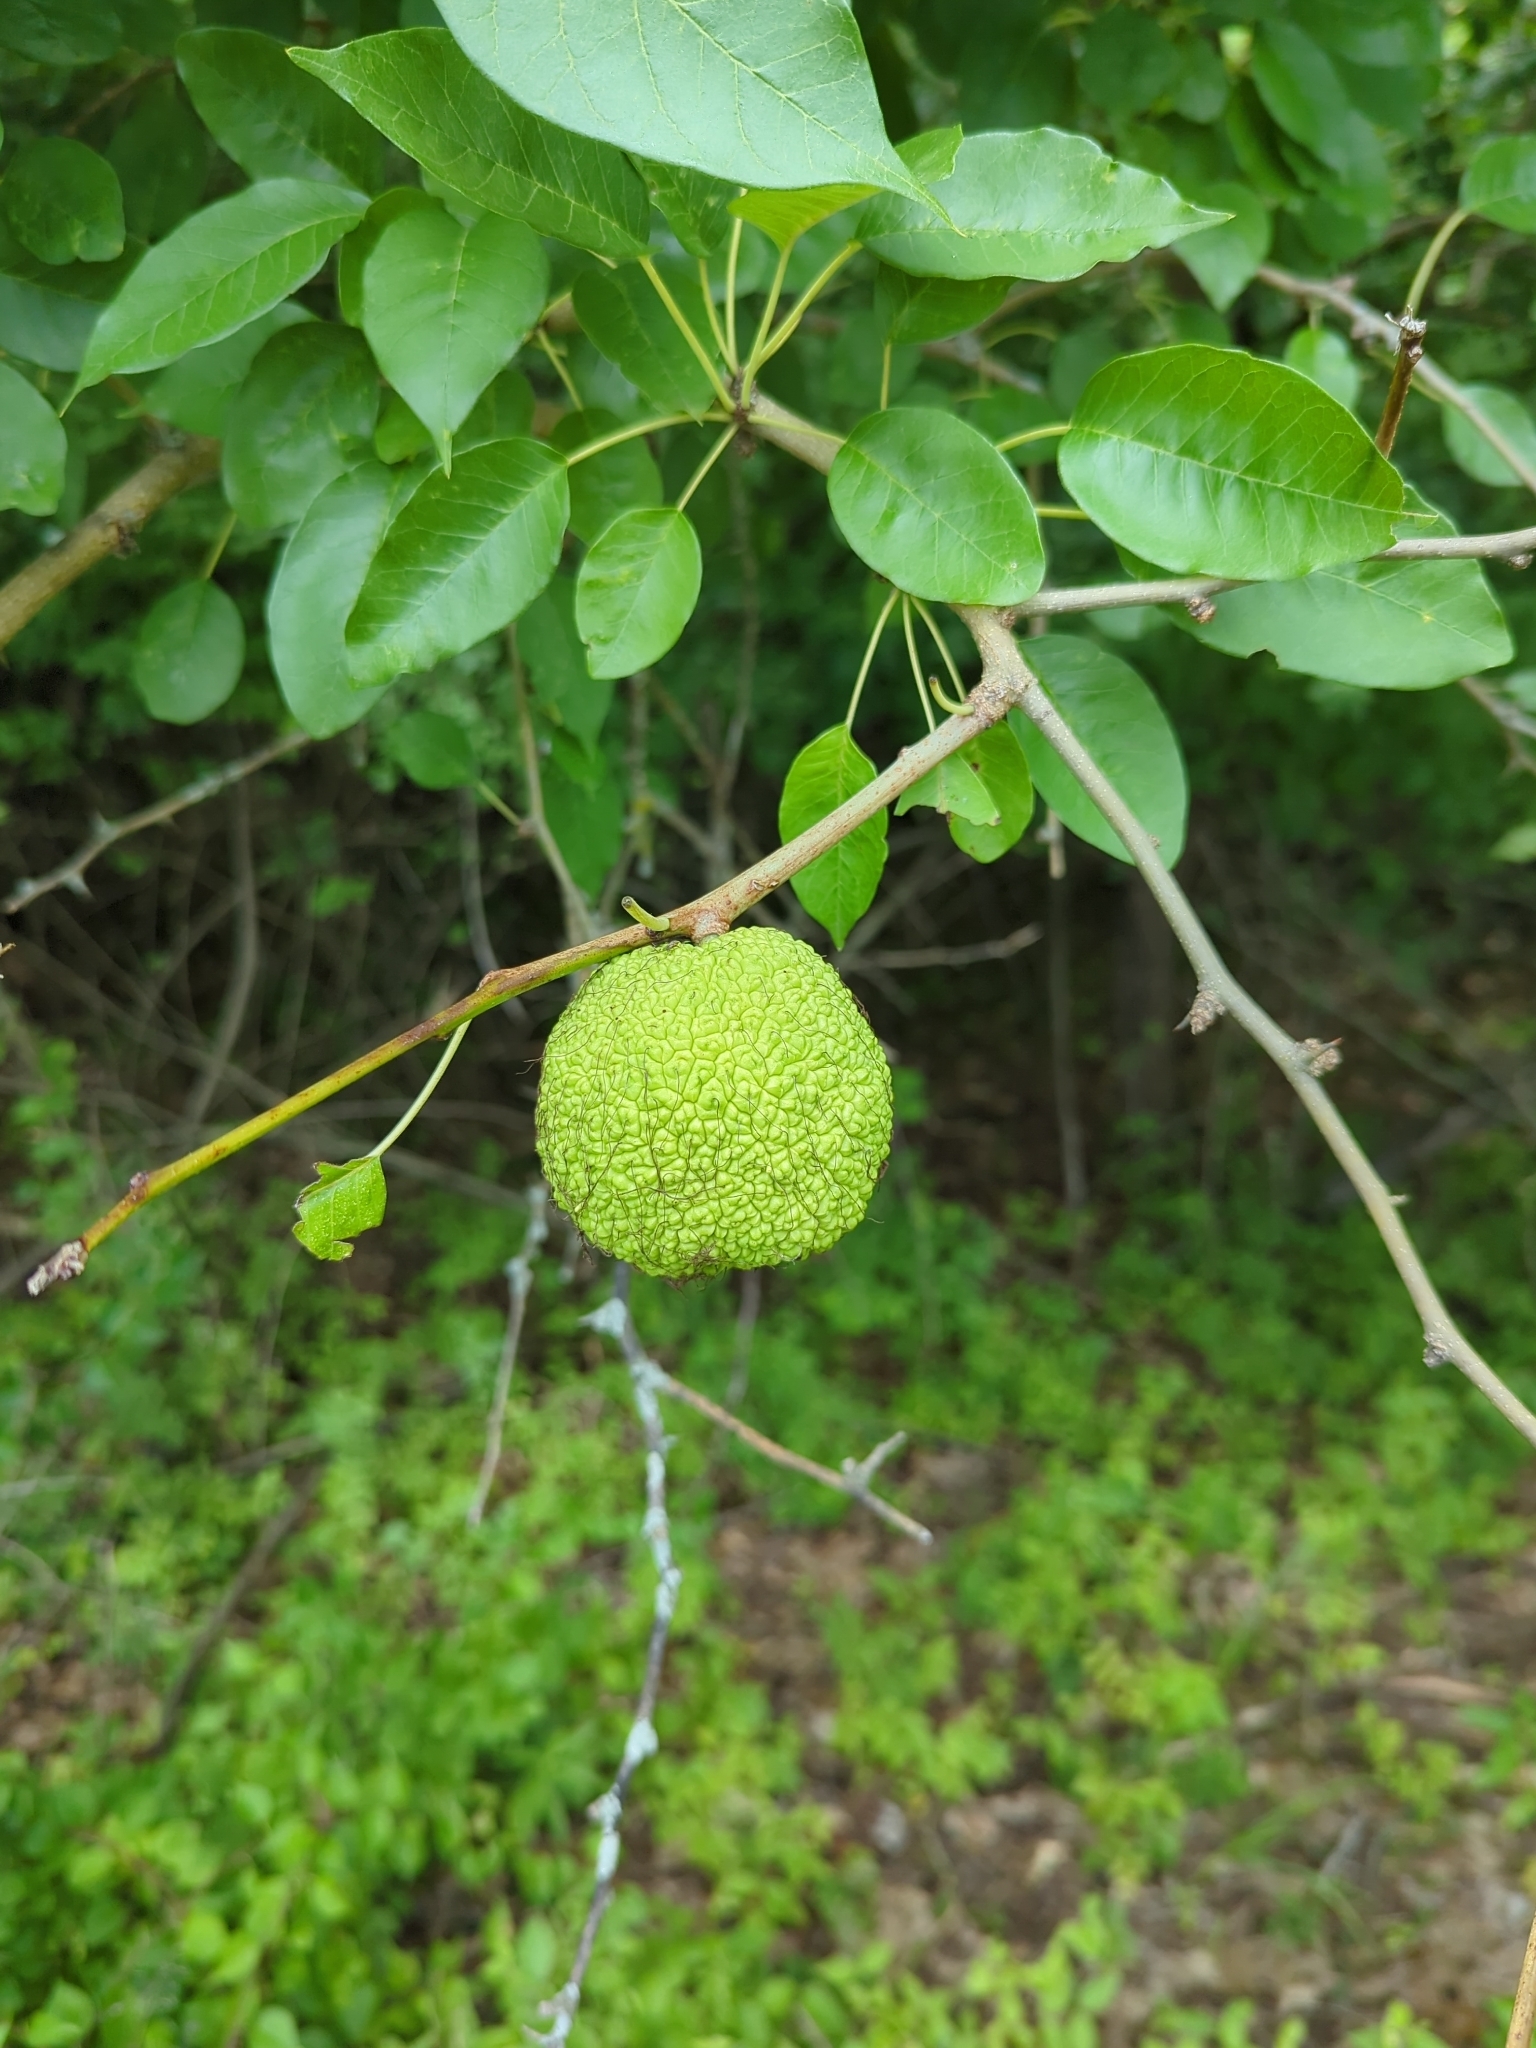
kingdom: Plantae
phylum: Tracheophyta
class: Magnoliopsida
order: Rosales
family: Moraceae
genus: Maclura
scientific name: Maclura pomifera
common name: Osage-orange
